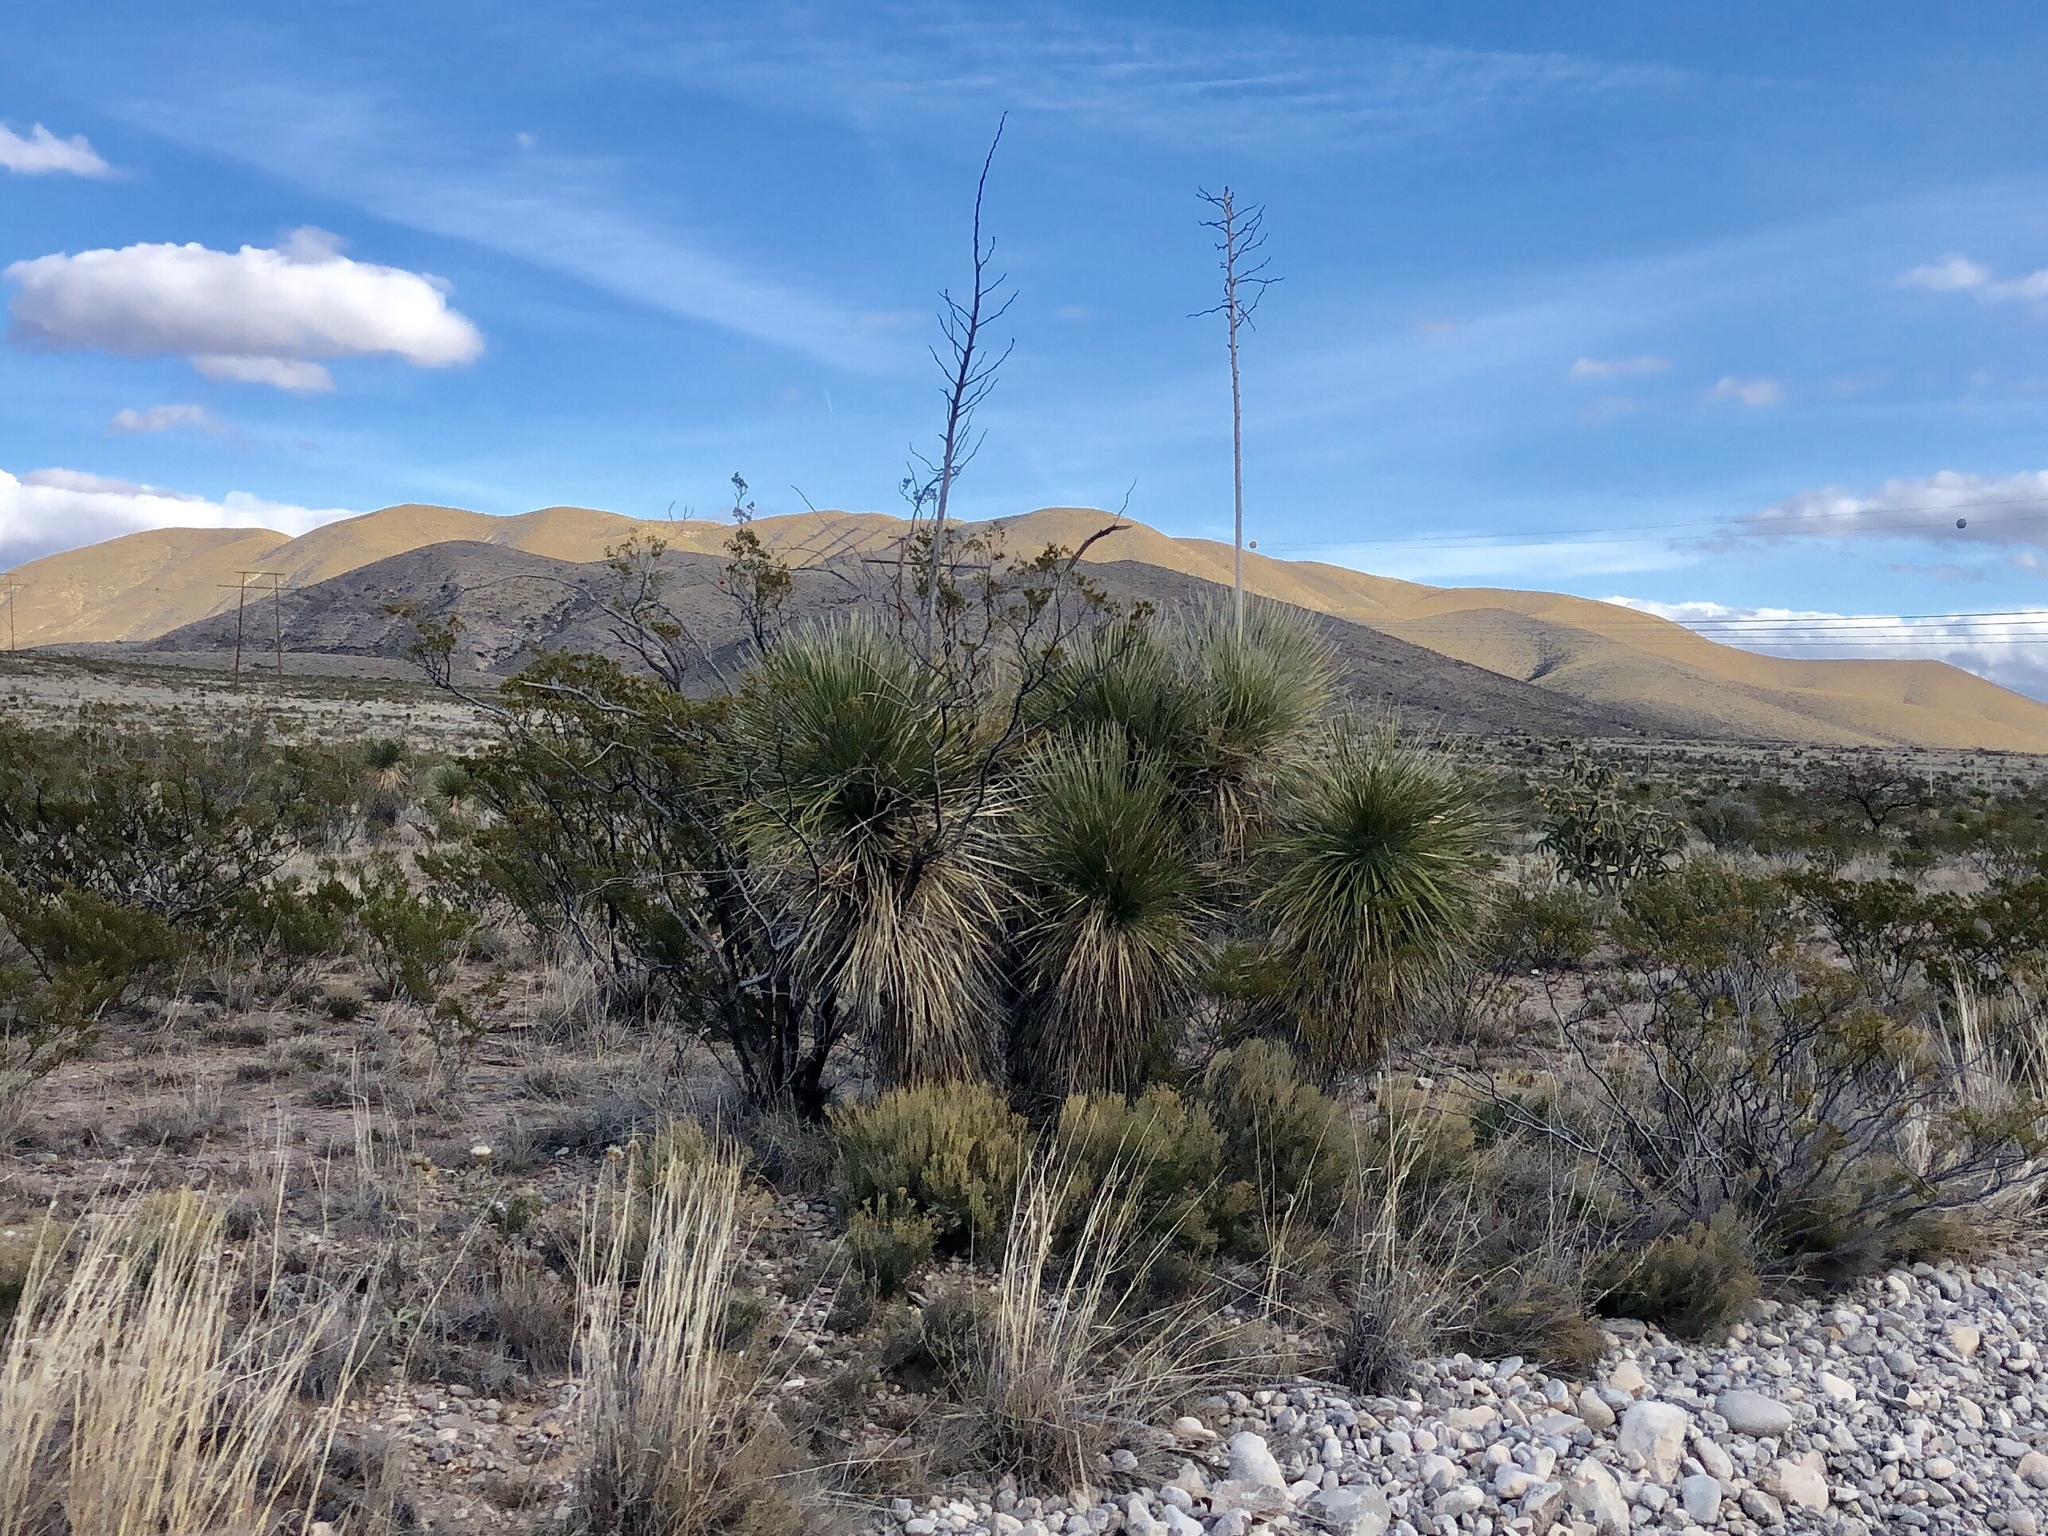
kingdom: Plantae
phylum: Tracheophyta
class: Liliopsida
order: Asparagales
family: Asparagaceae
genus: Yucca
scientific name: Yucca elata
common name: Palmella
